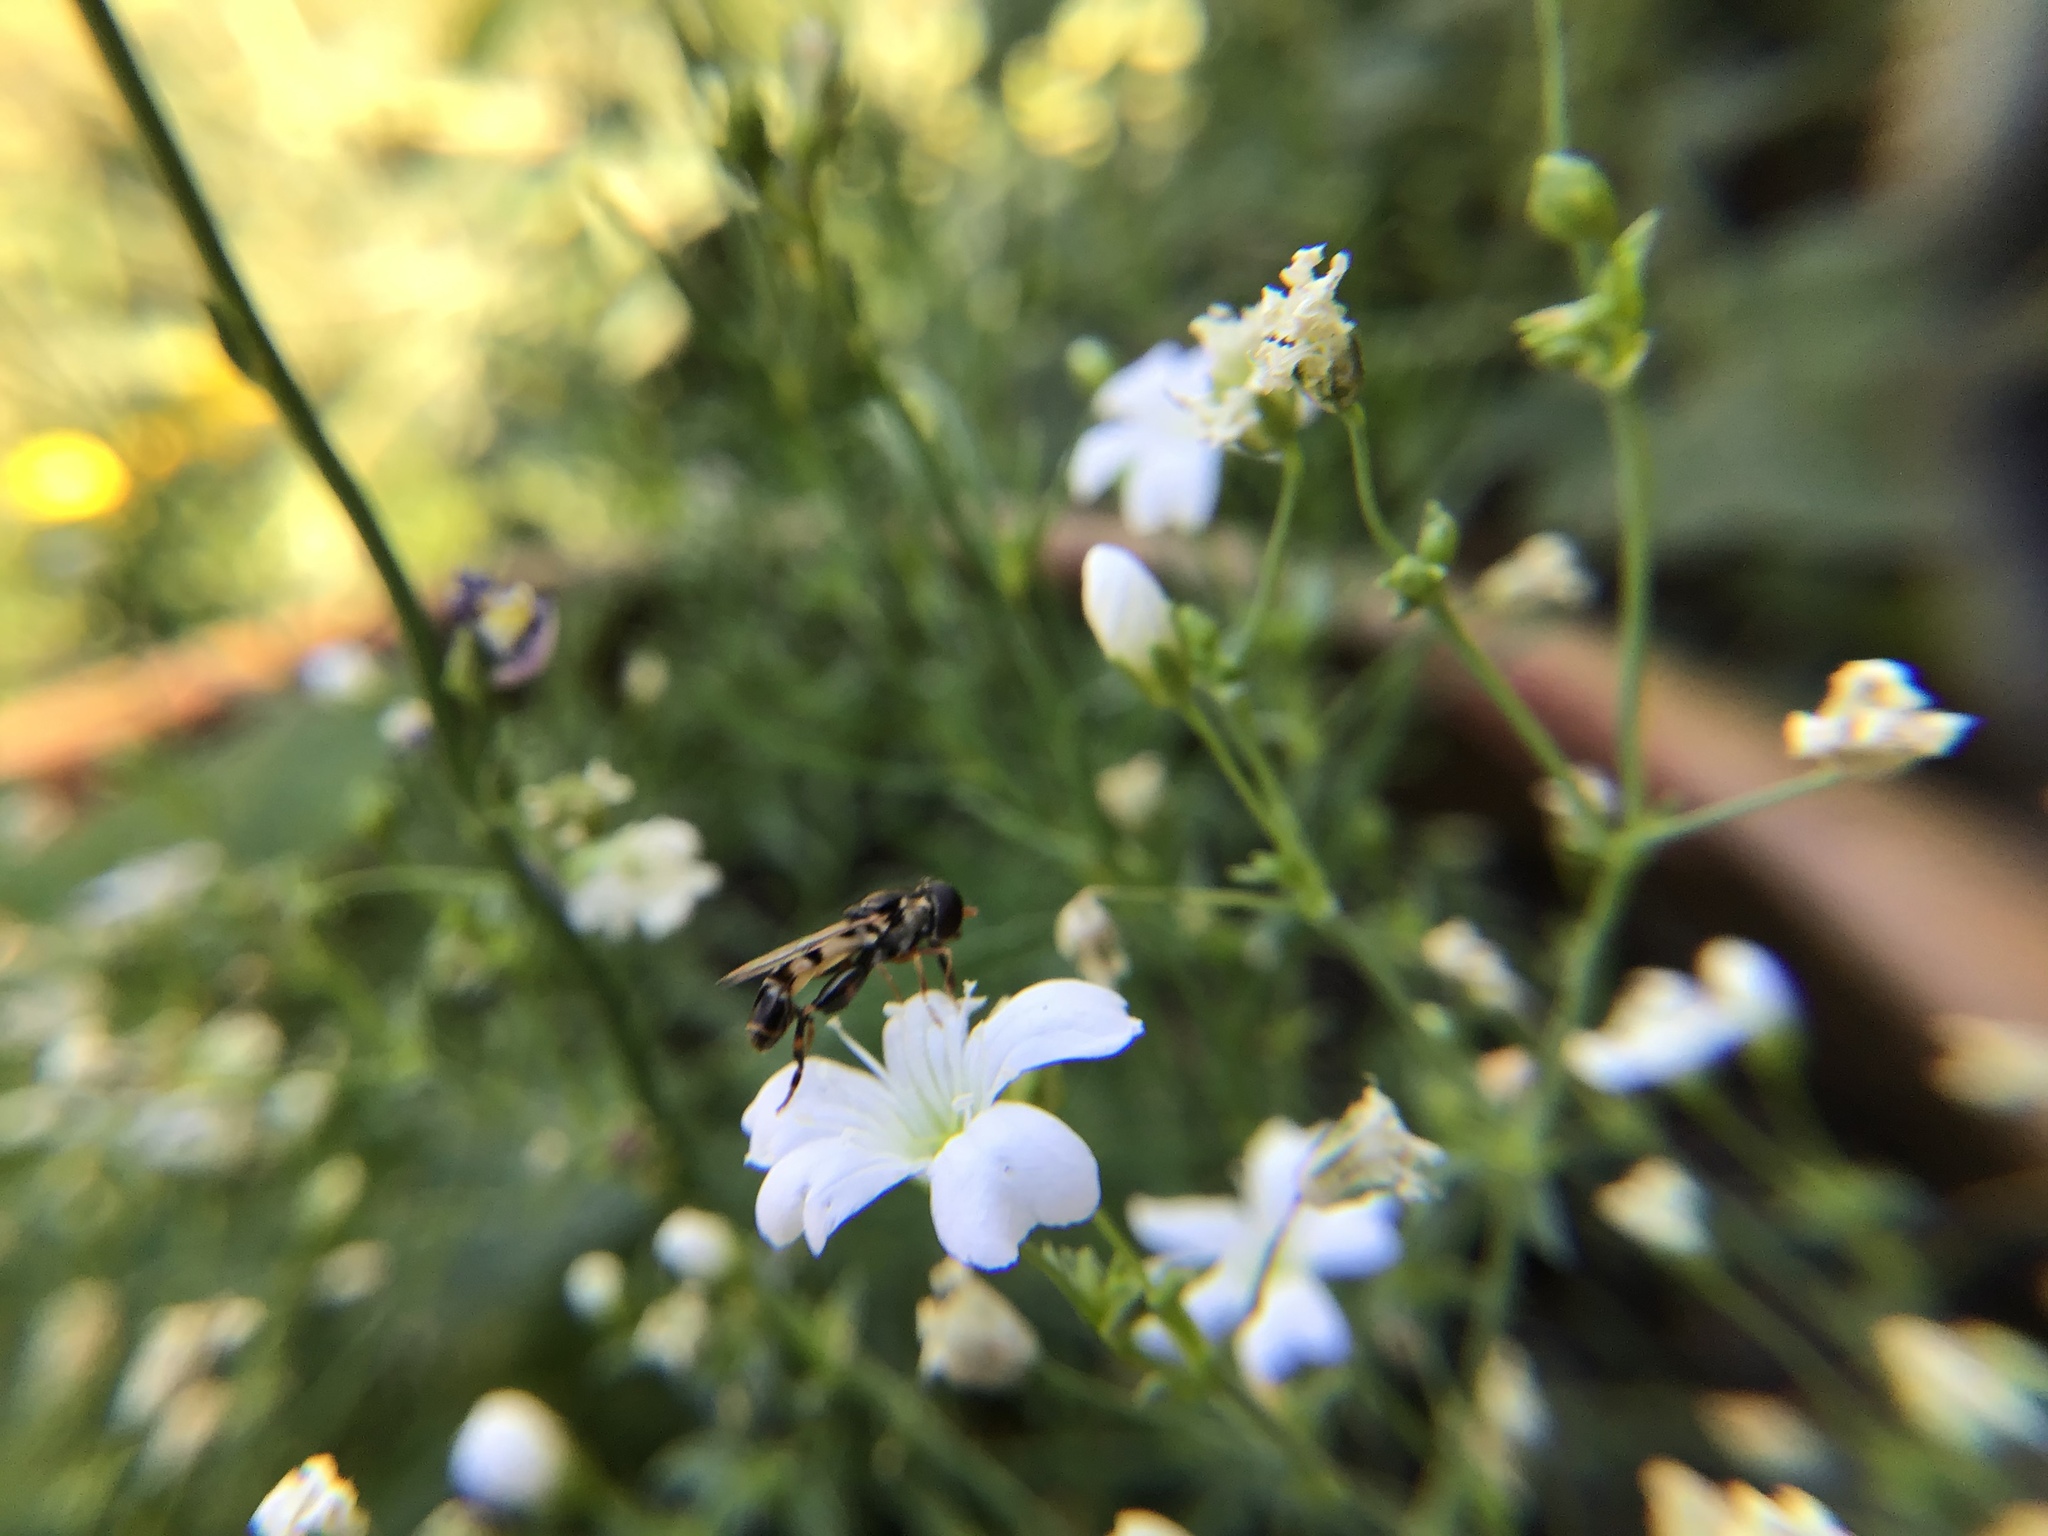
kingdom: Animalia
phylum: Arthropoda
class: Insecta
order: Diptera
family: Syrphidae
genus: Syritta
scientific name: Syritta pipiens
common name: Hover fly
